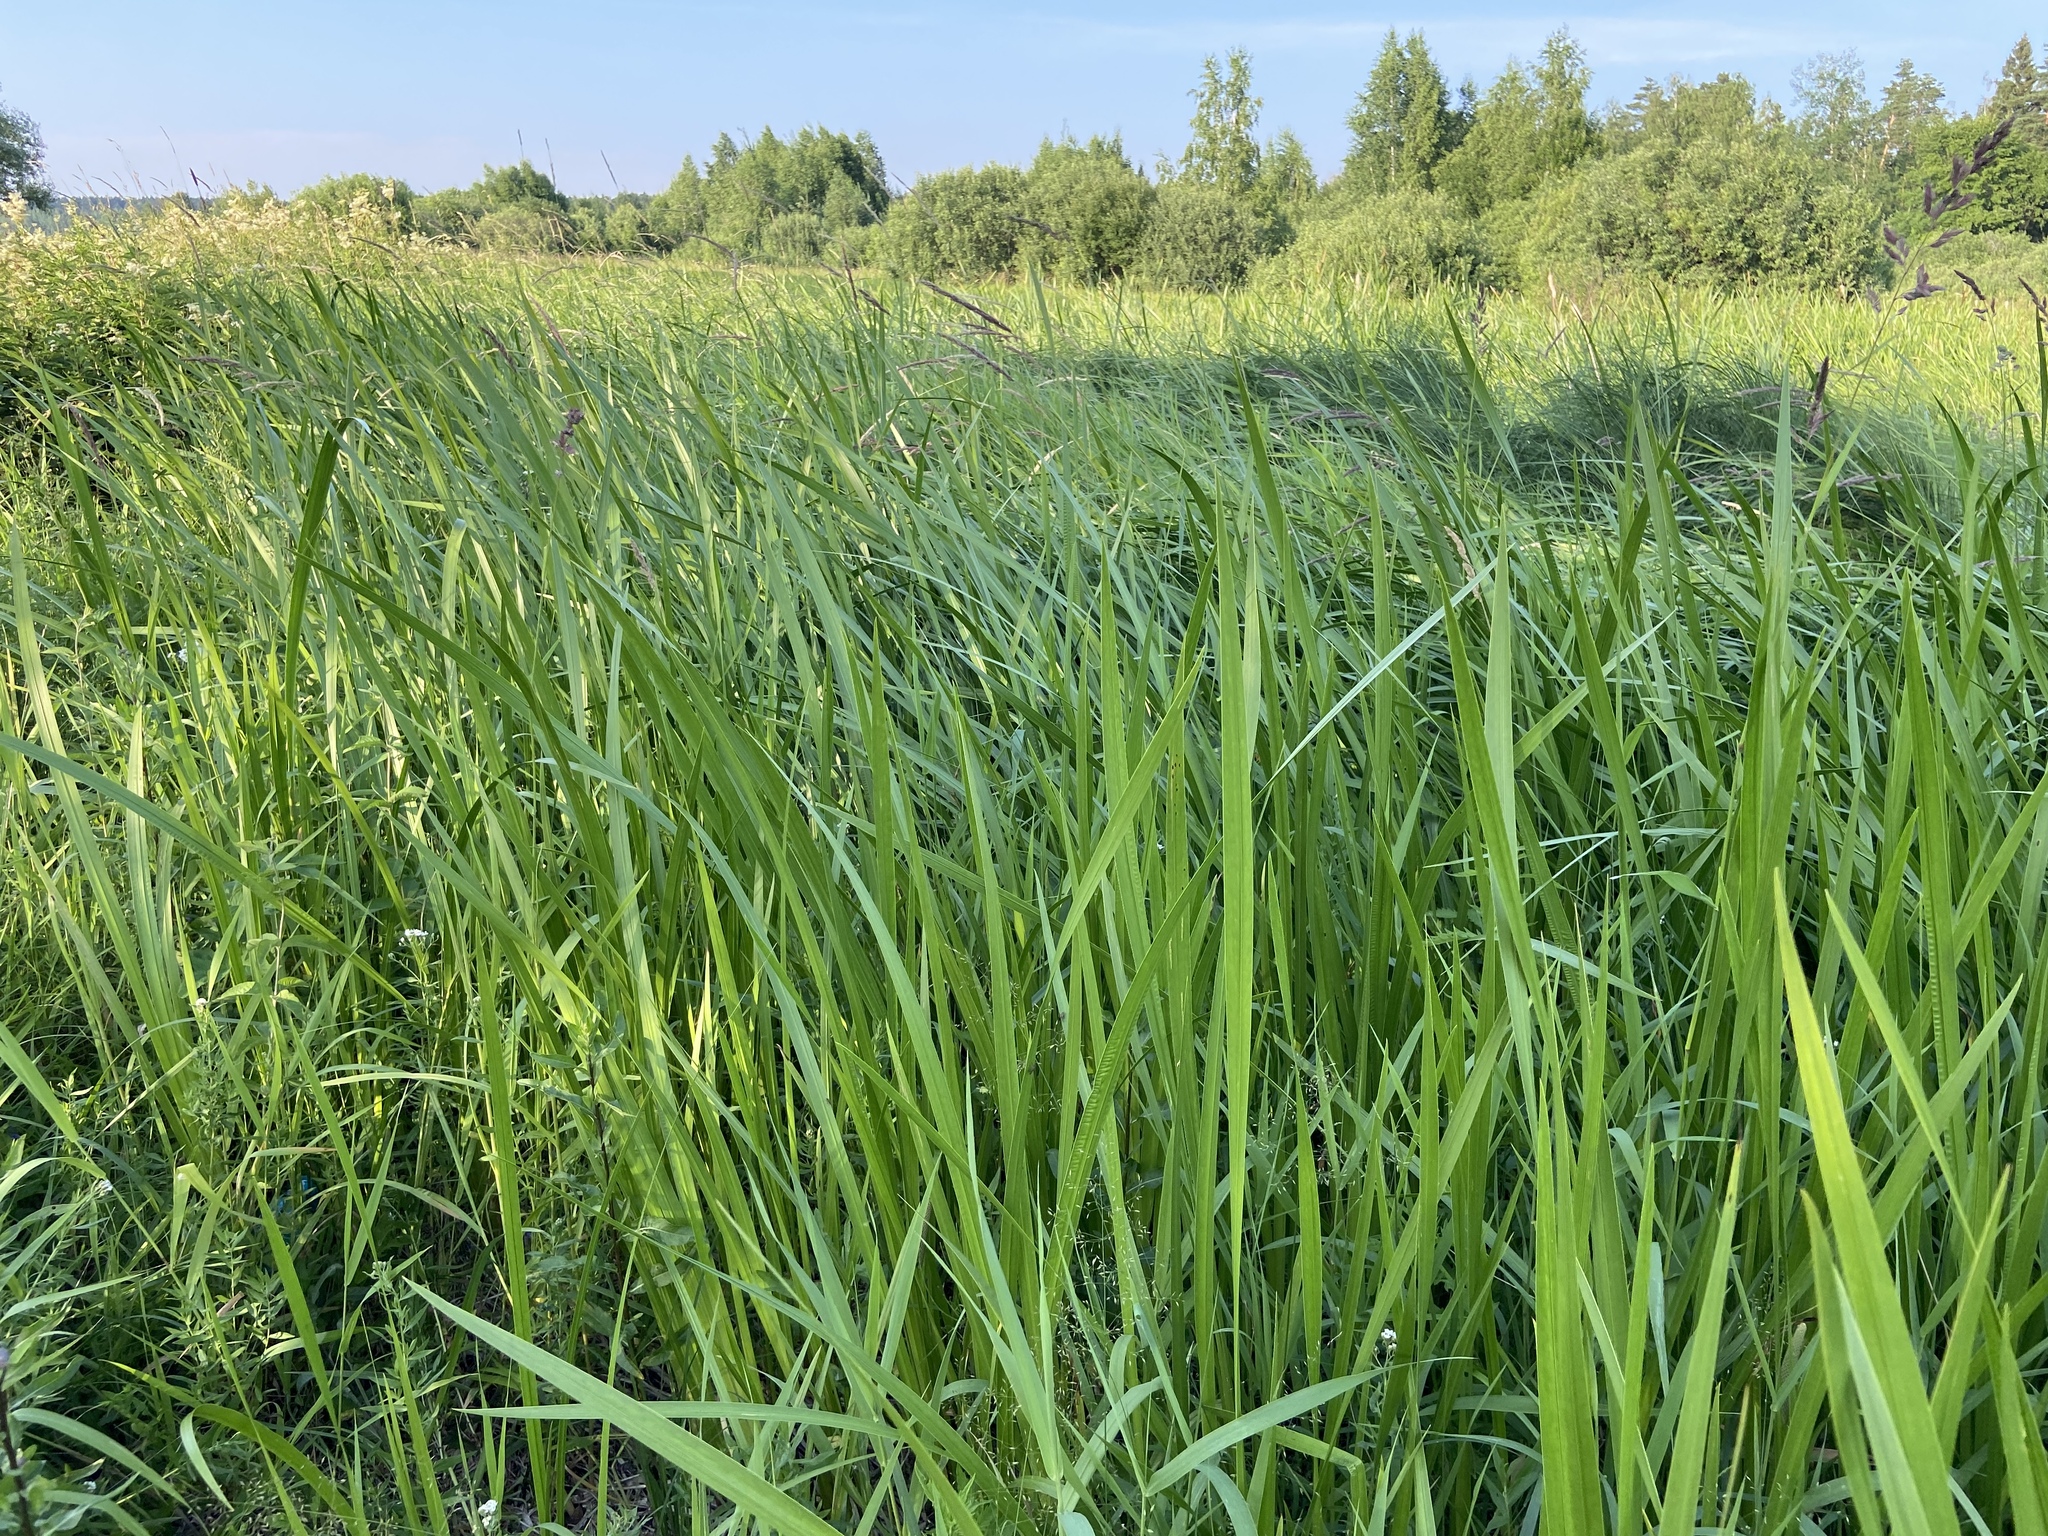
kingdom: Plantae
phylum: Tracheophyta
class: Liliopsida
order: Acorales
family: Acoraceae
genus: Acorus
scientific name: Acorus calamus
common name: Sweet-flag
